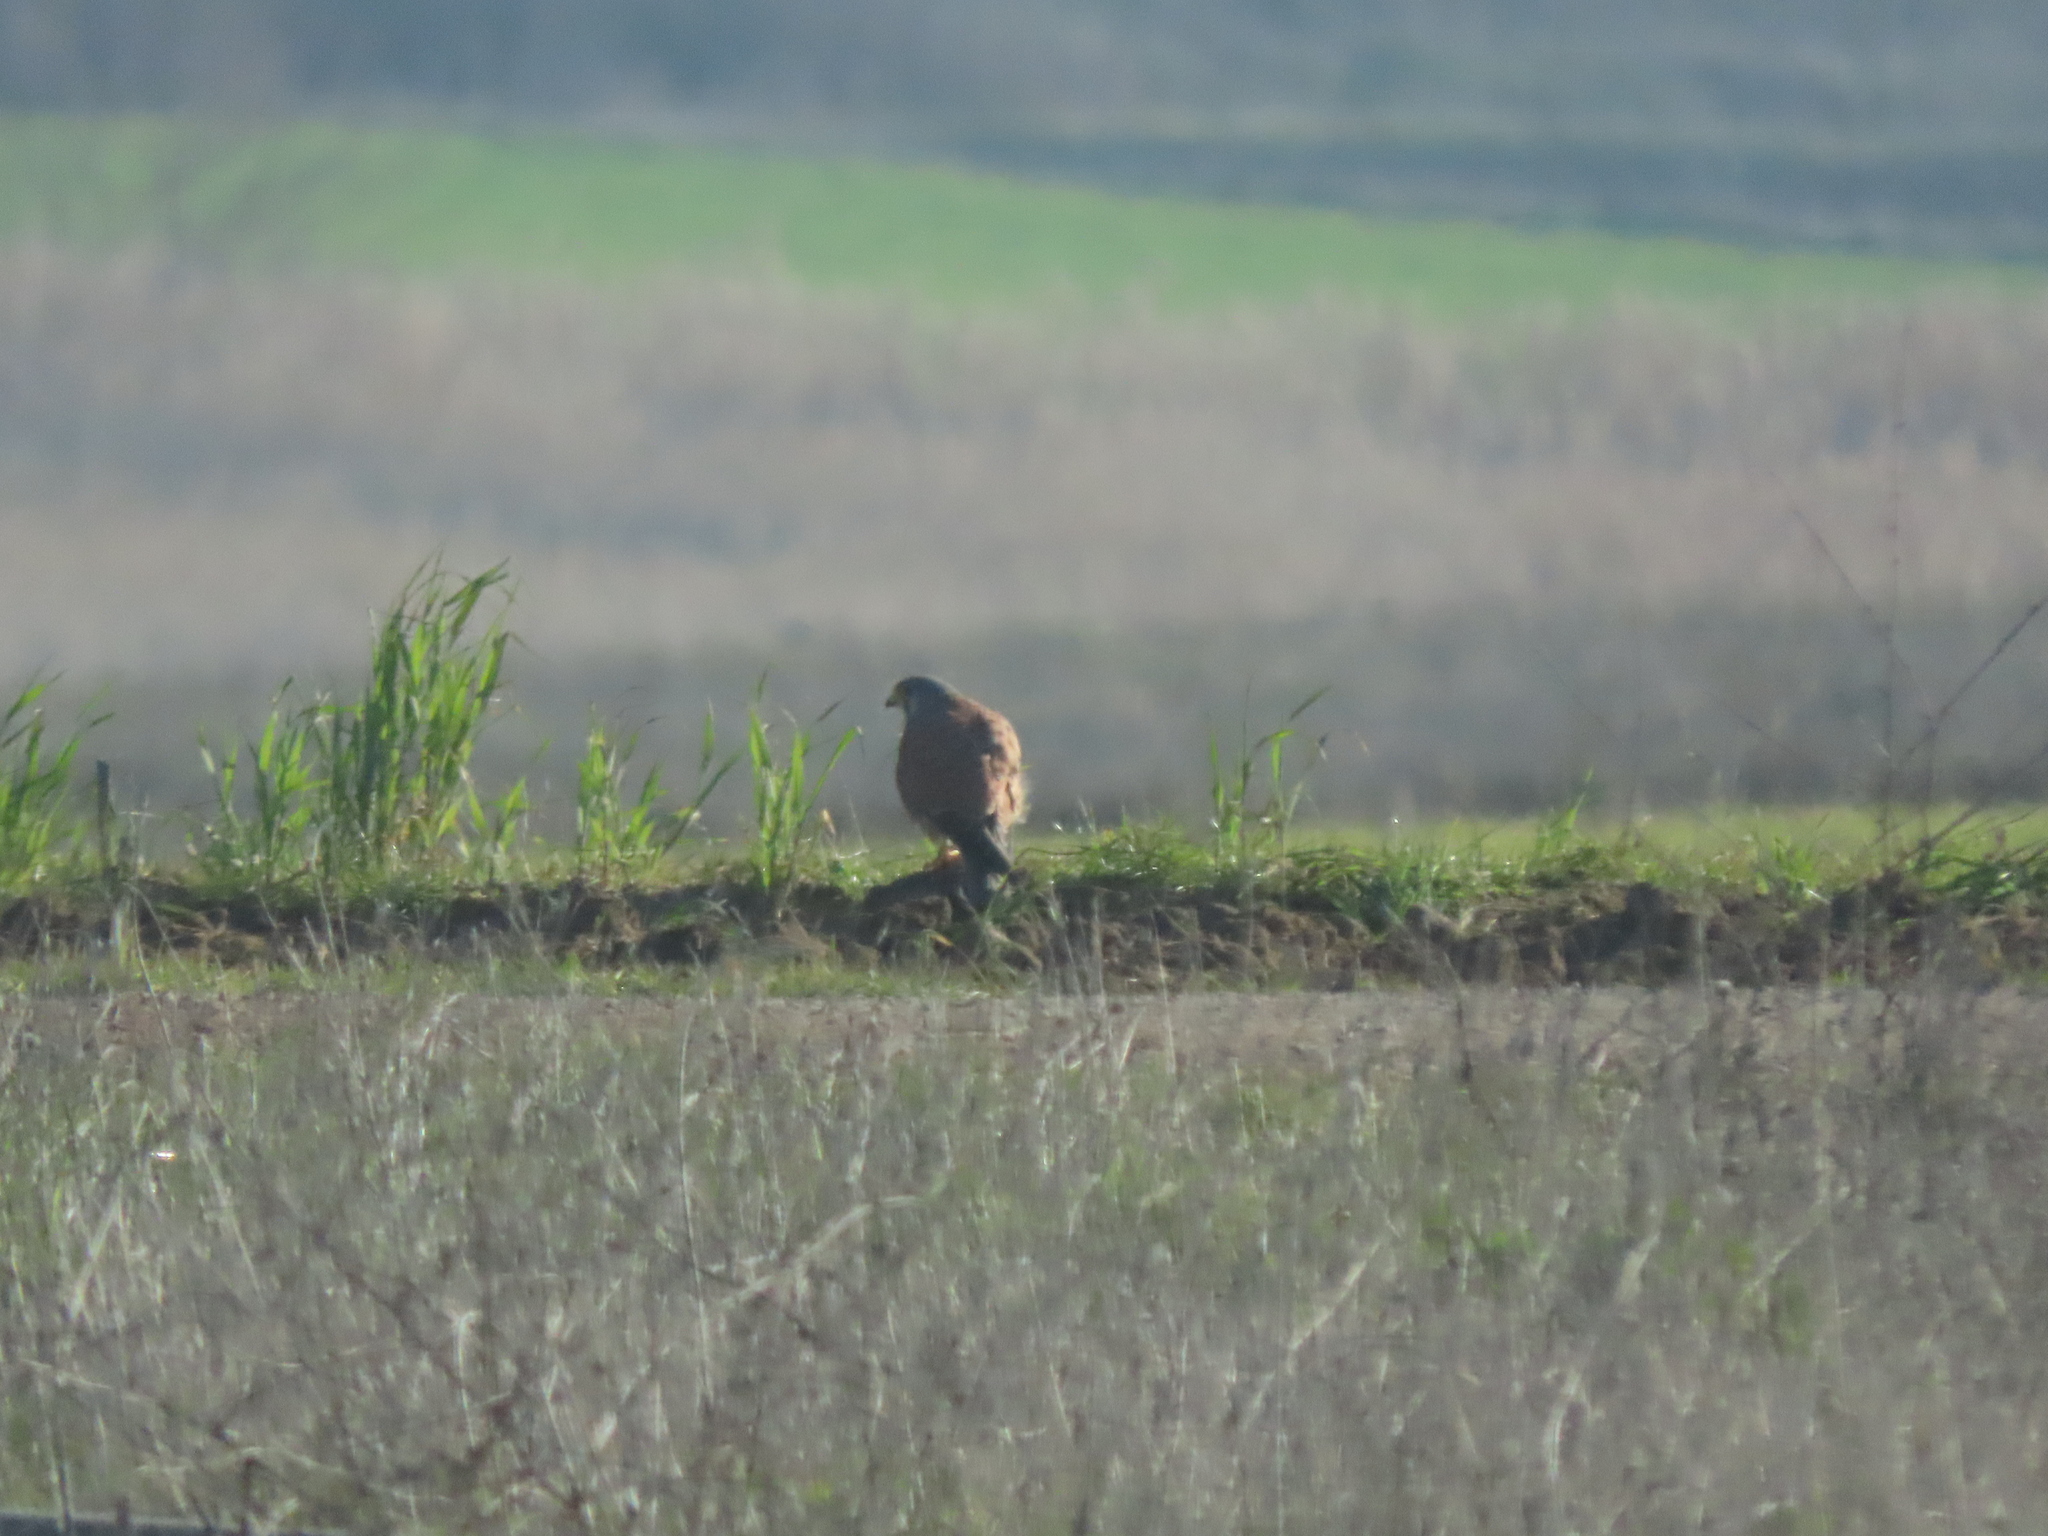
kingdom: Animalia
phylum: Chordata
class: Aves
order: Falconiformes
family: Falconidae
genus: Falco
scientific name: Falco tinnunculus
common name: Common kestrel
